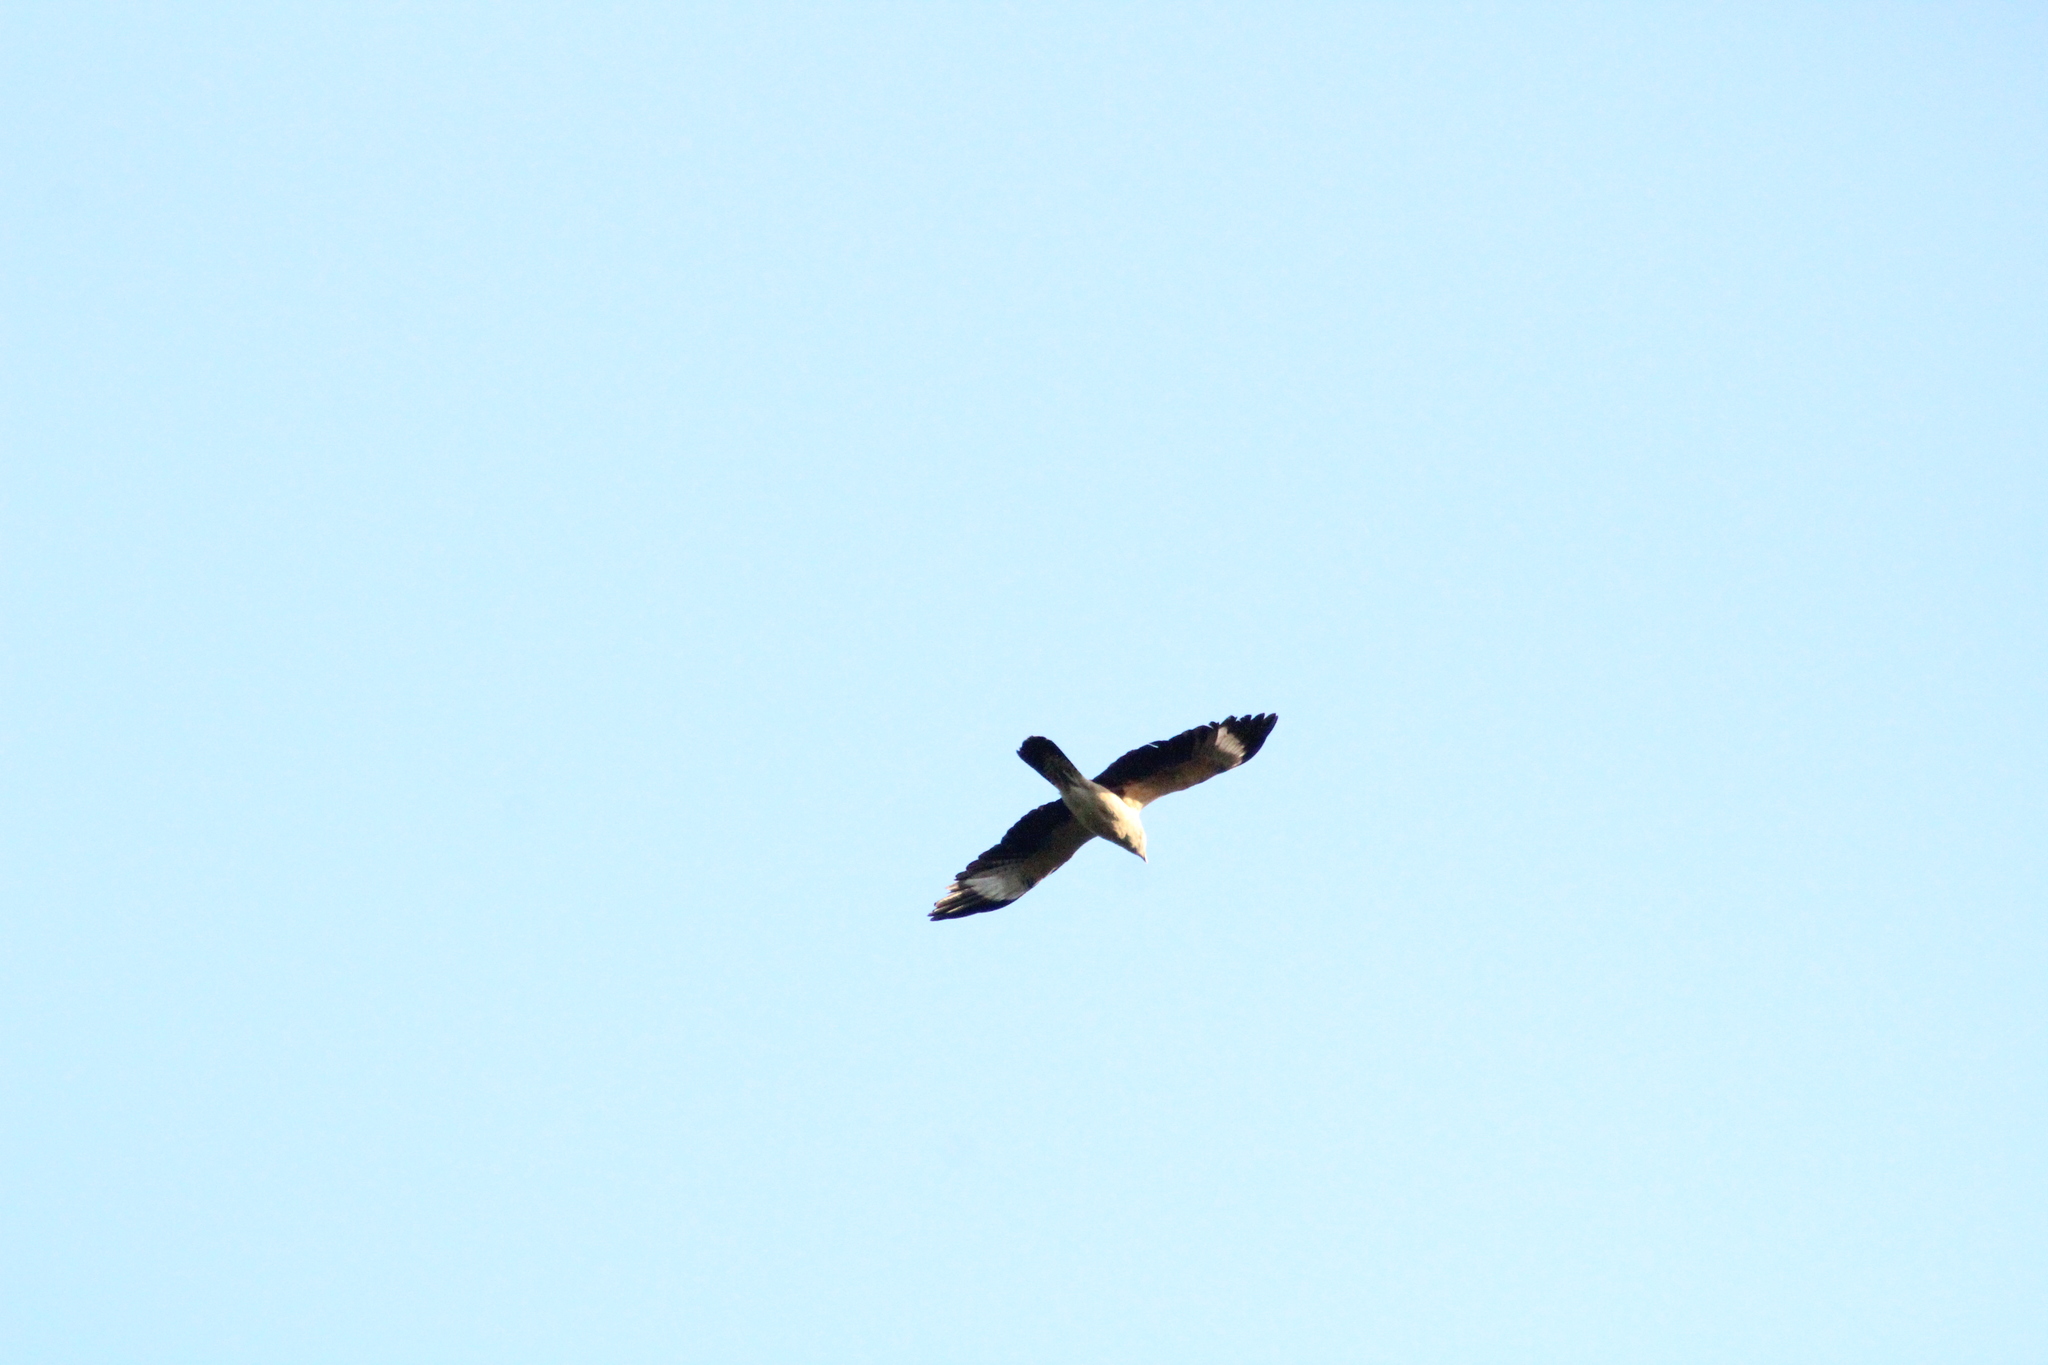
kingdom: Animalia
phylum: Chordata
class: Aves
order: Falconiformes
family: Falconidae
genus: Daptrius
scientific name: Daptrius
